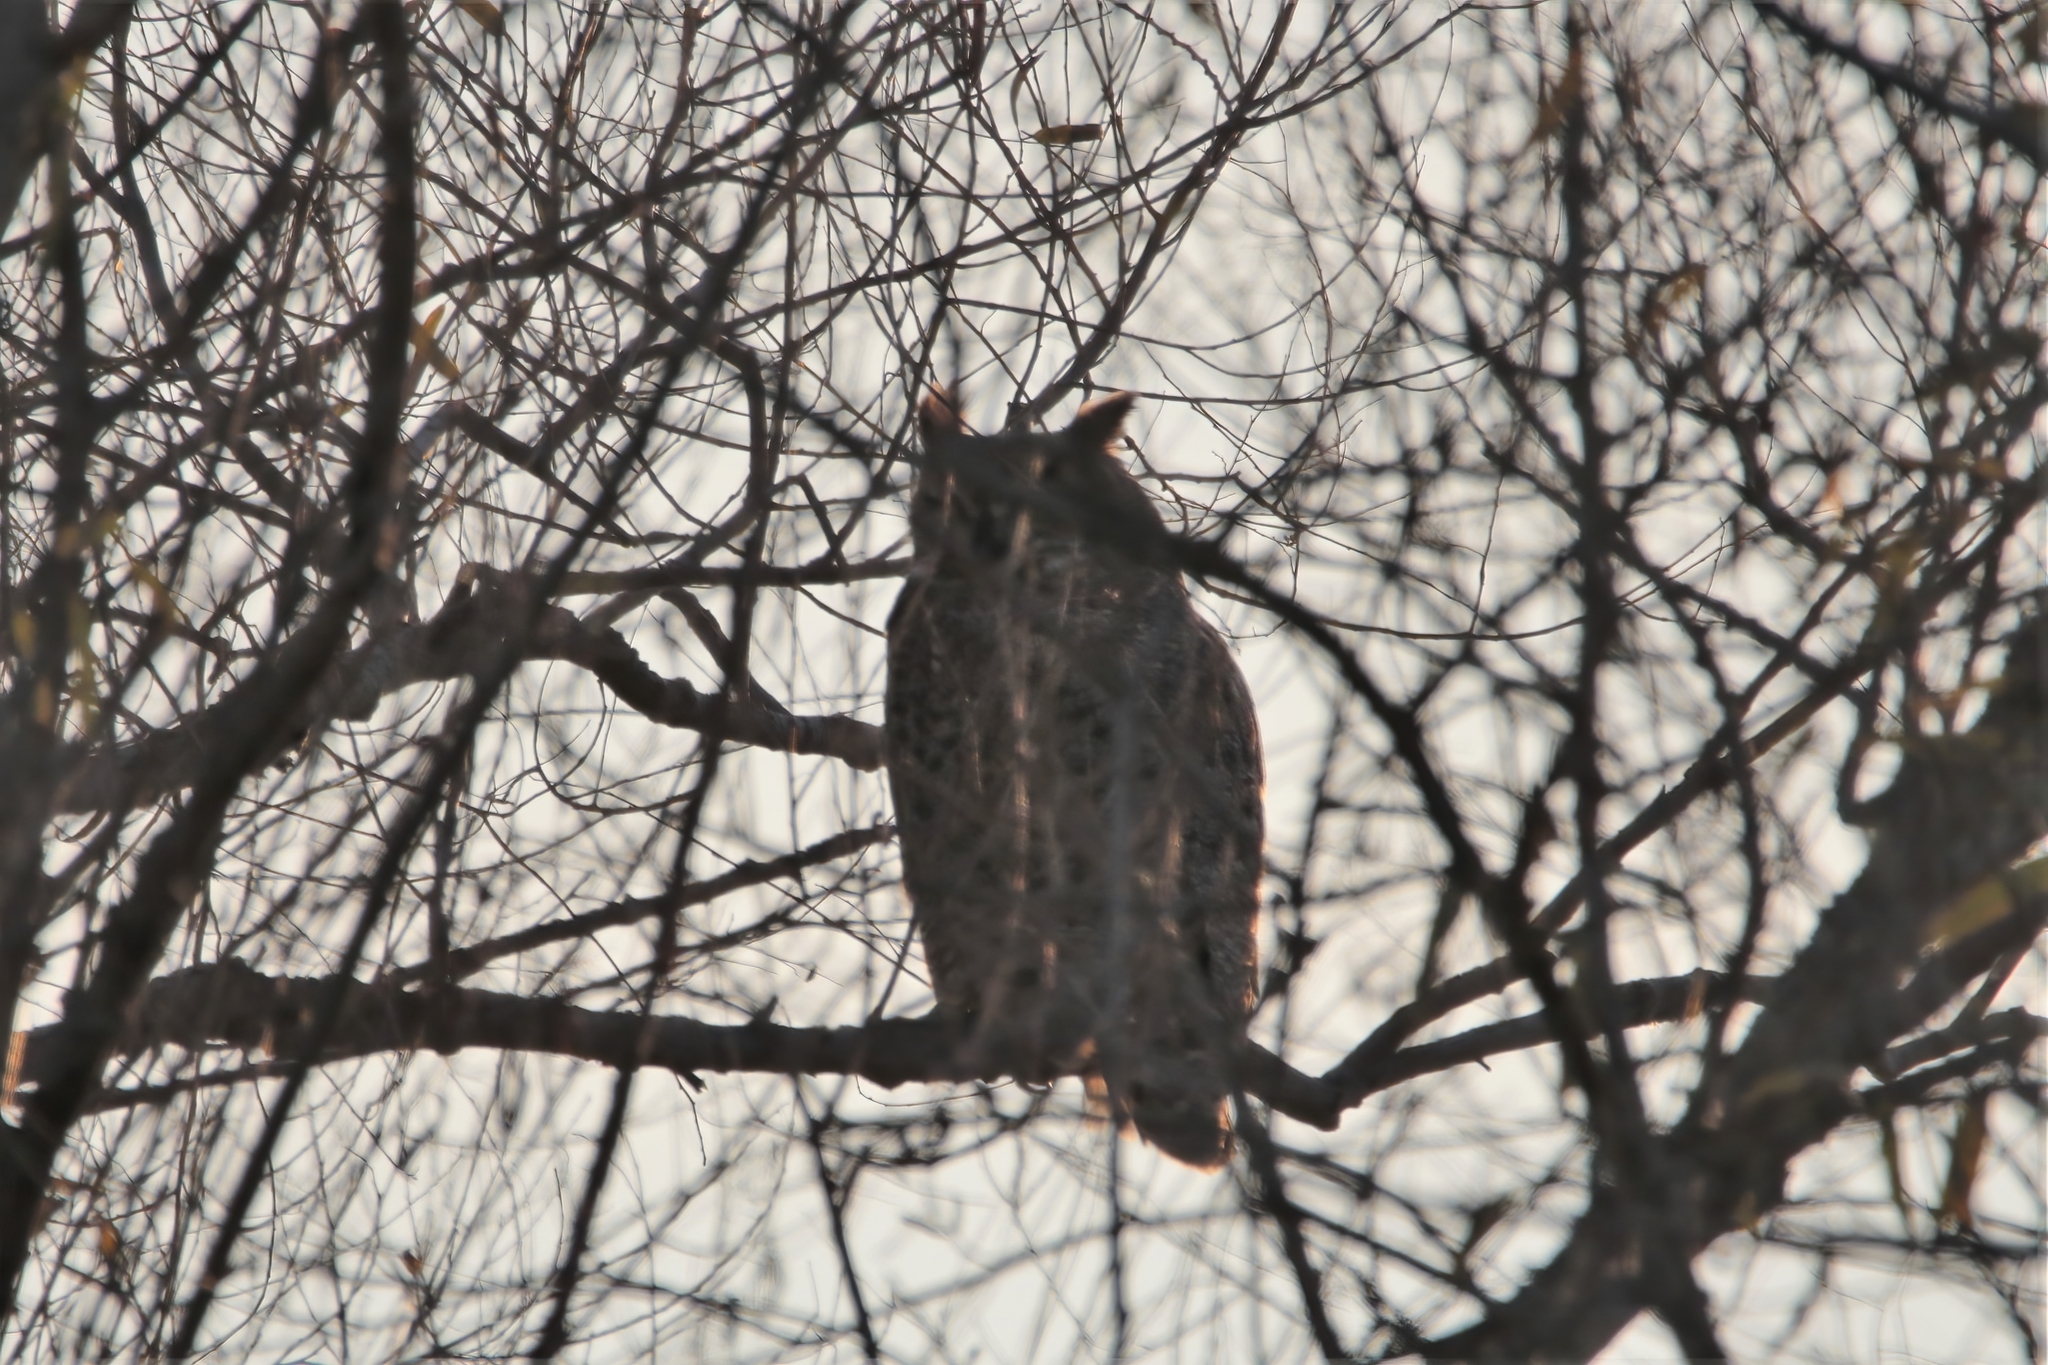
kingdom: Animalia
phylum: Chordata
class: Aves
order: Strigiformes
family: Strigidae
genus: Bubo
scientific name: Bubo virginianus
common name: Great horned owl
